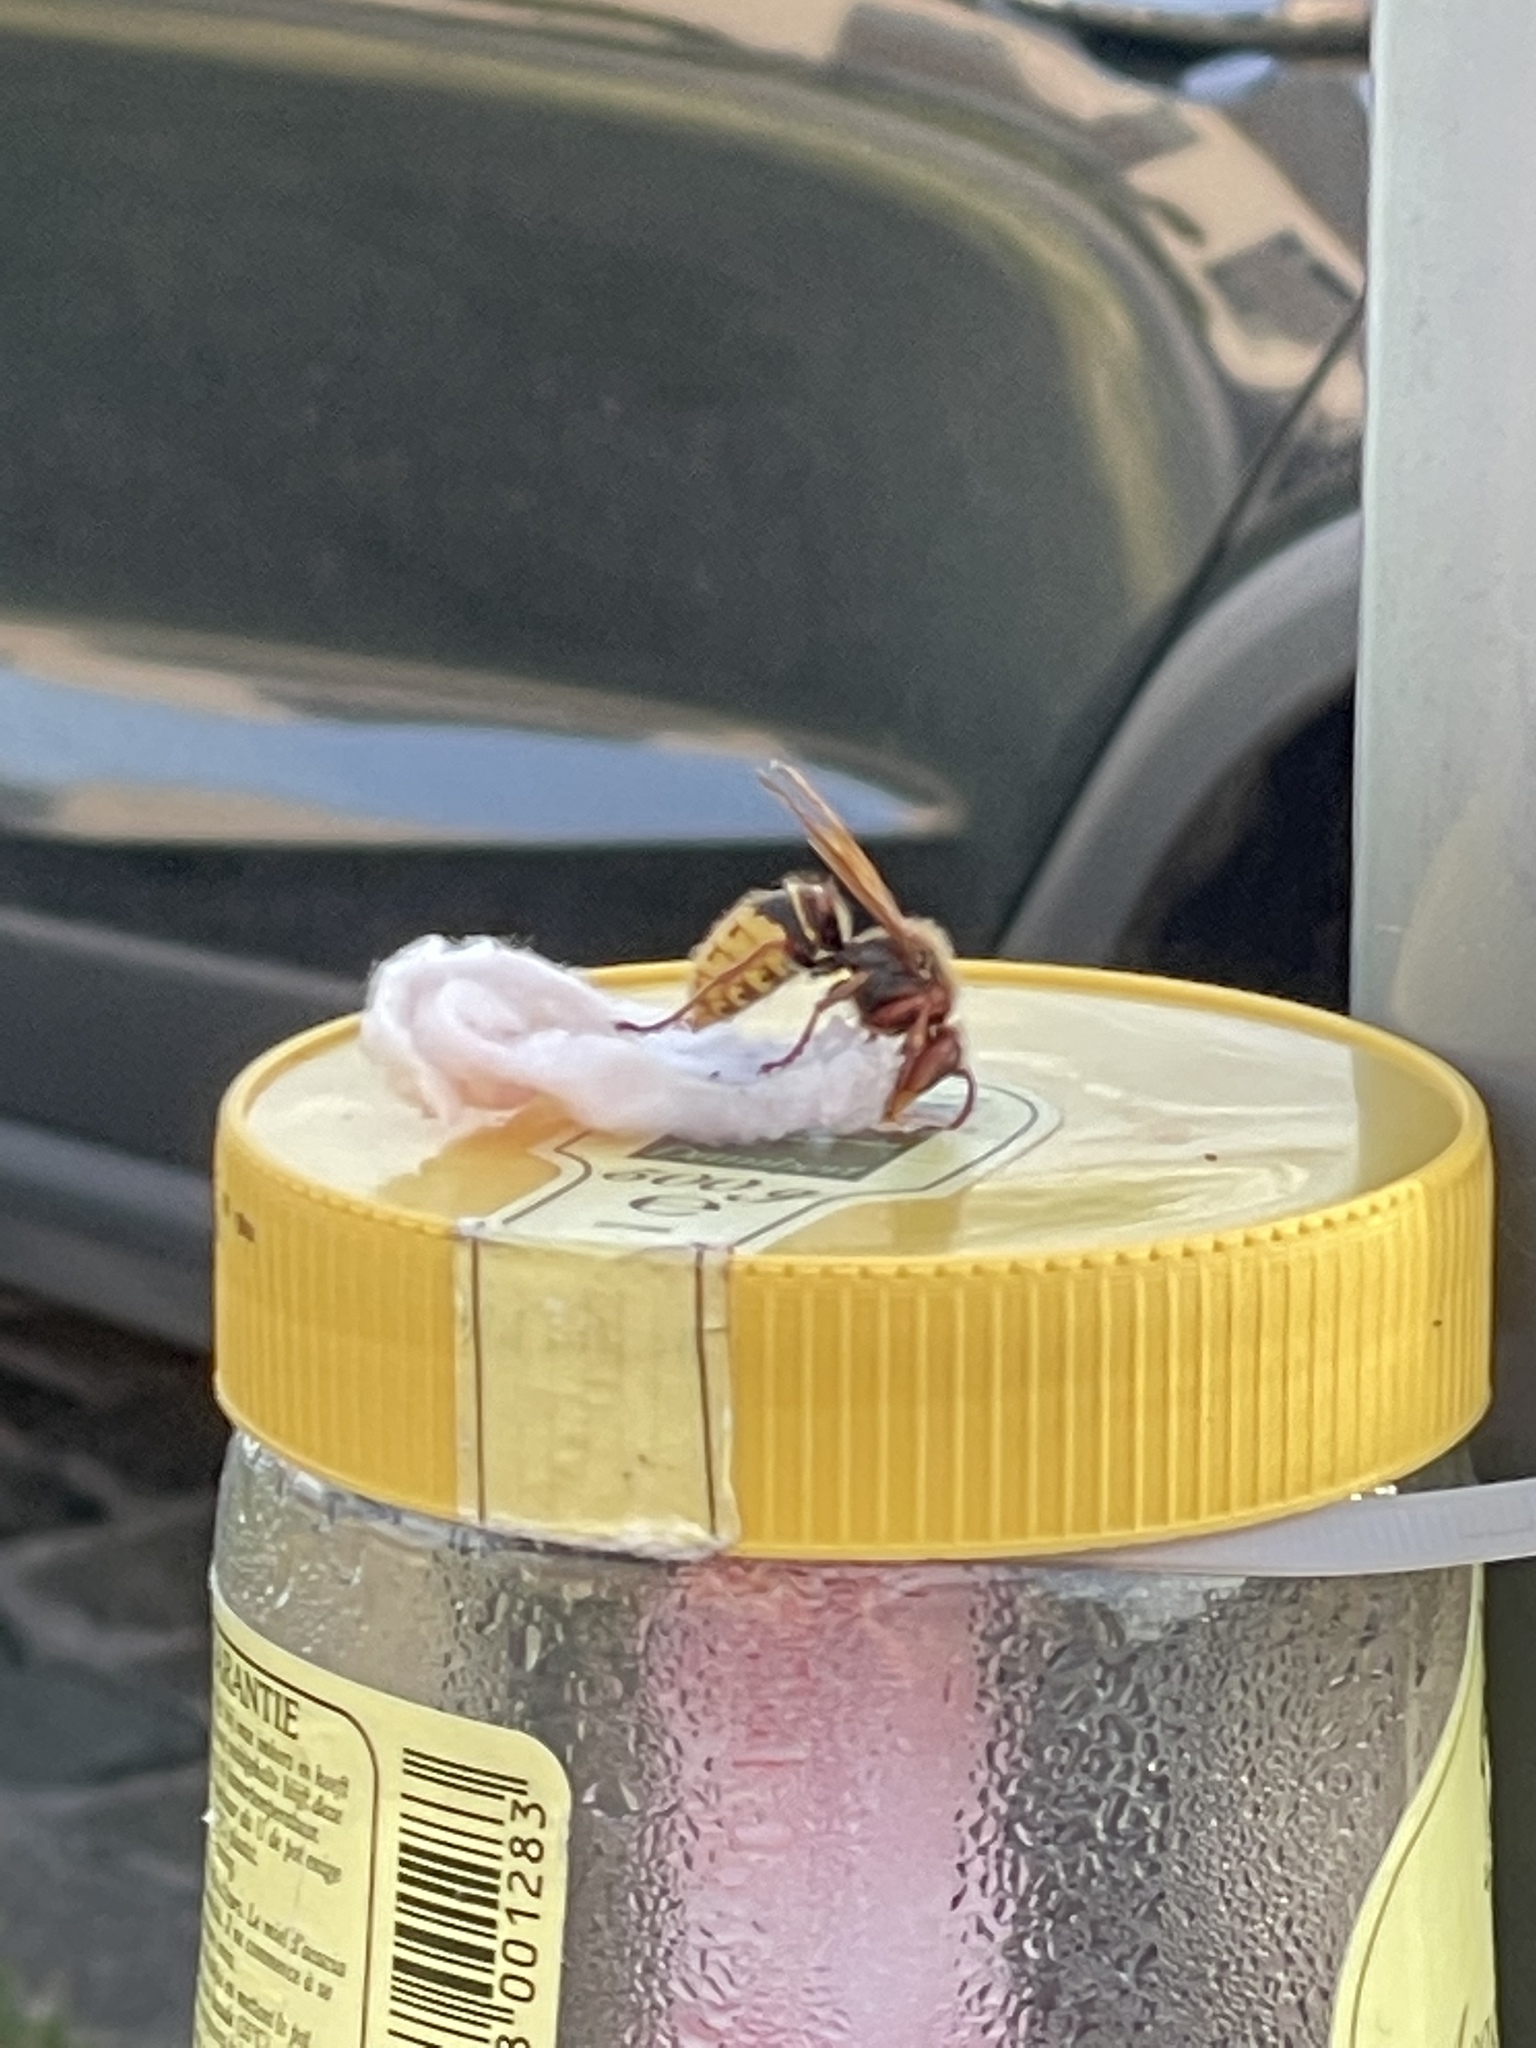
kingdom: Animalia
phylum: Arthropoda
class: Insecta
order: Hymenoptera
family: Vespidae
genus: Vespa
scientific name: Vespa crabro
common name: Hornet
